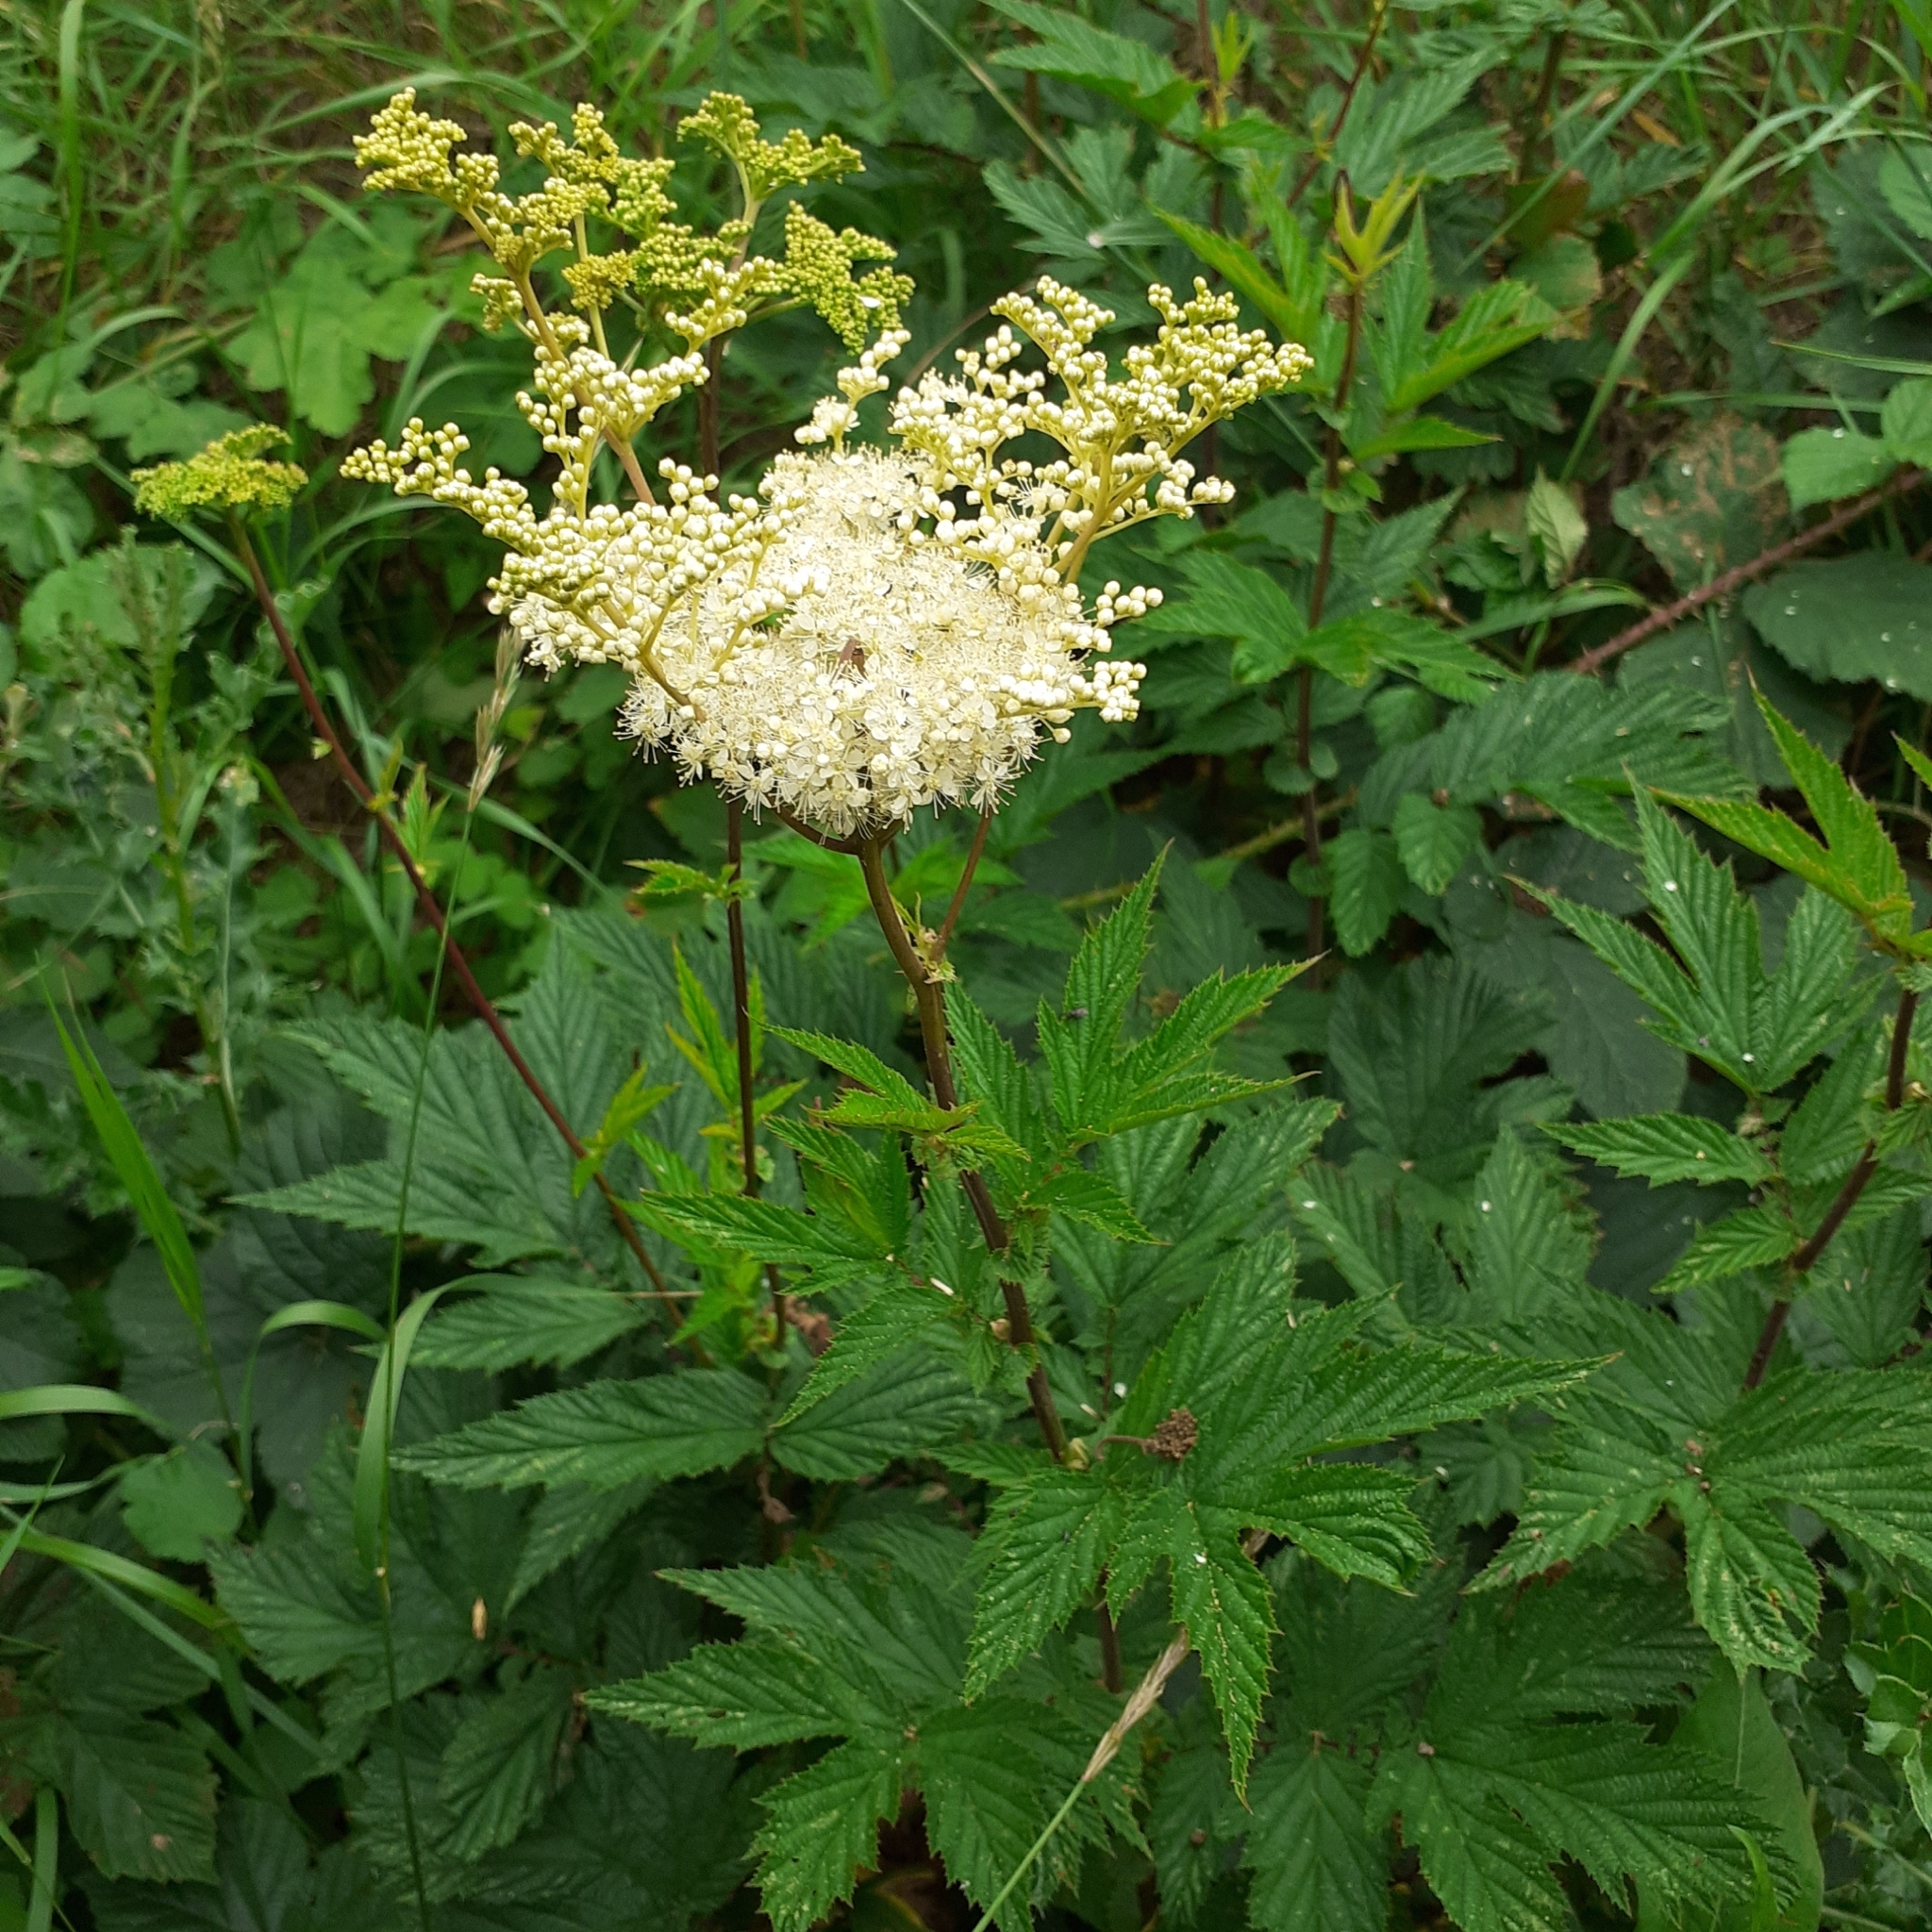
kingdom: Plantae
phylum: Tracheophyta
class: Magnoliopsida
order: Rosales
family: Rosaceae
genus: Filipendula
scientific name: Filipendula ulmaria
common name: Meadowsweet
